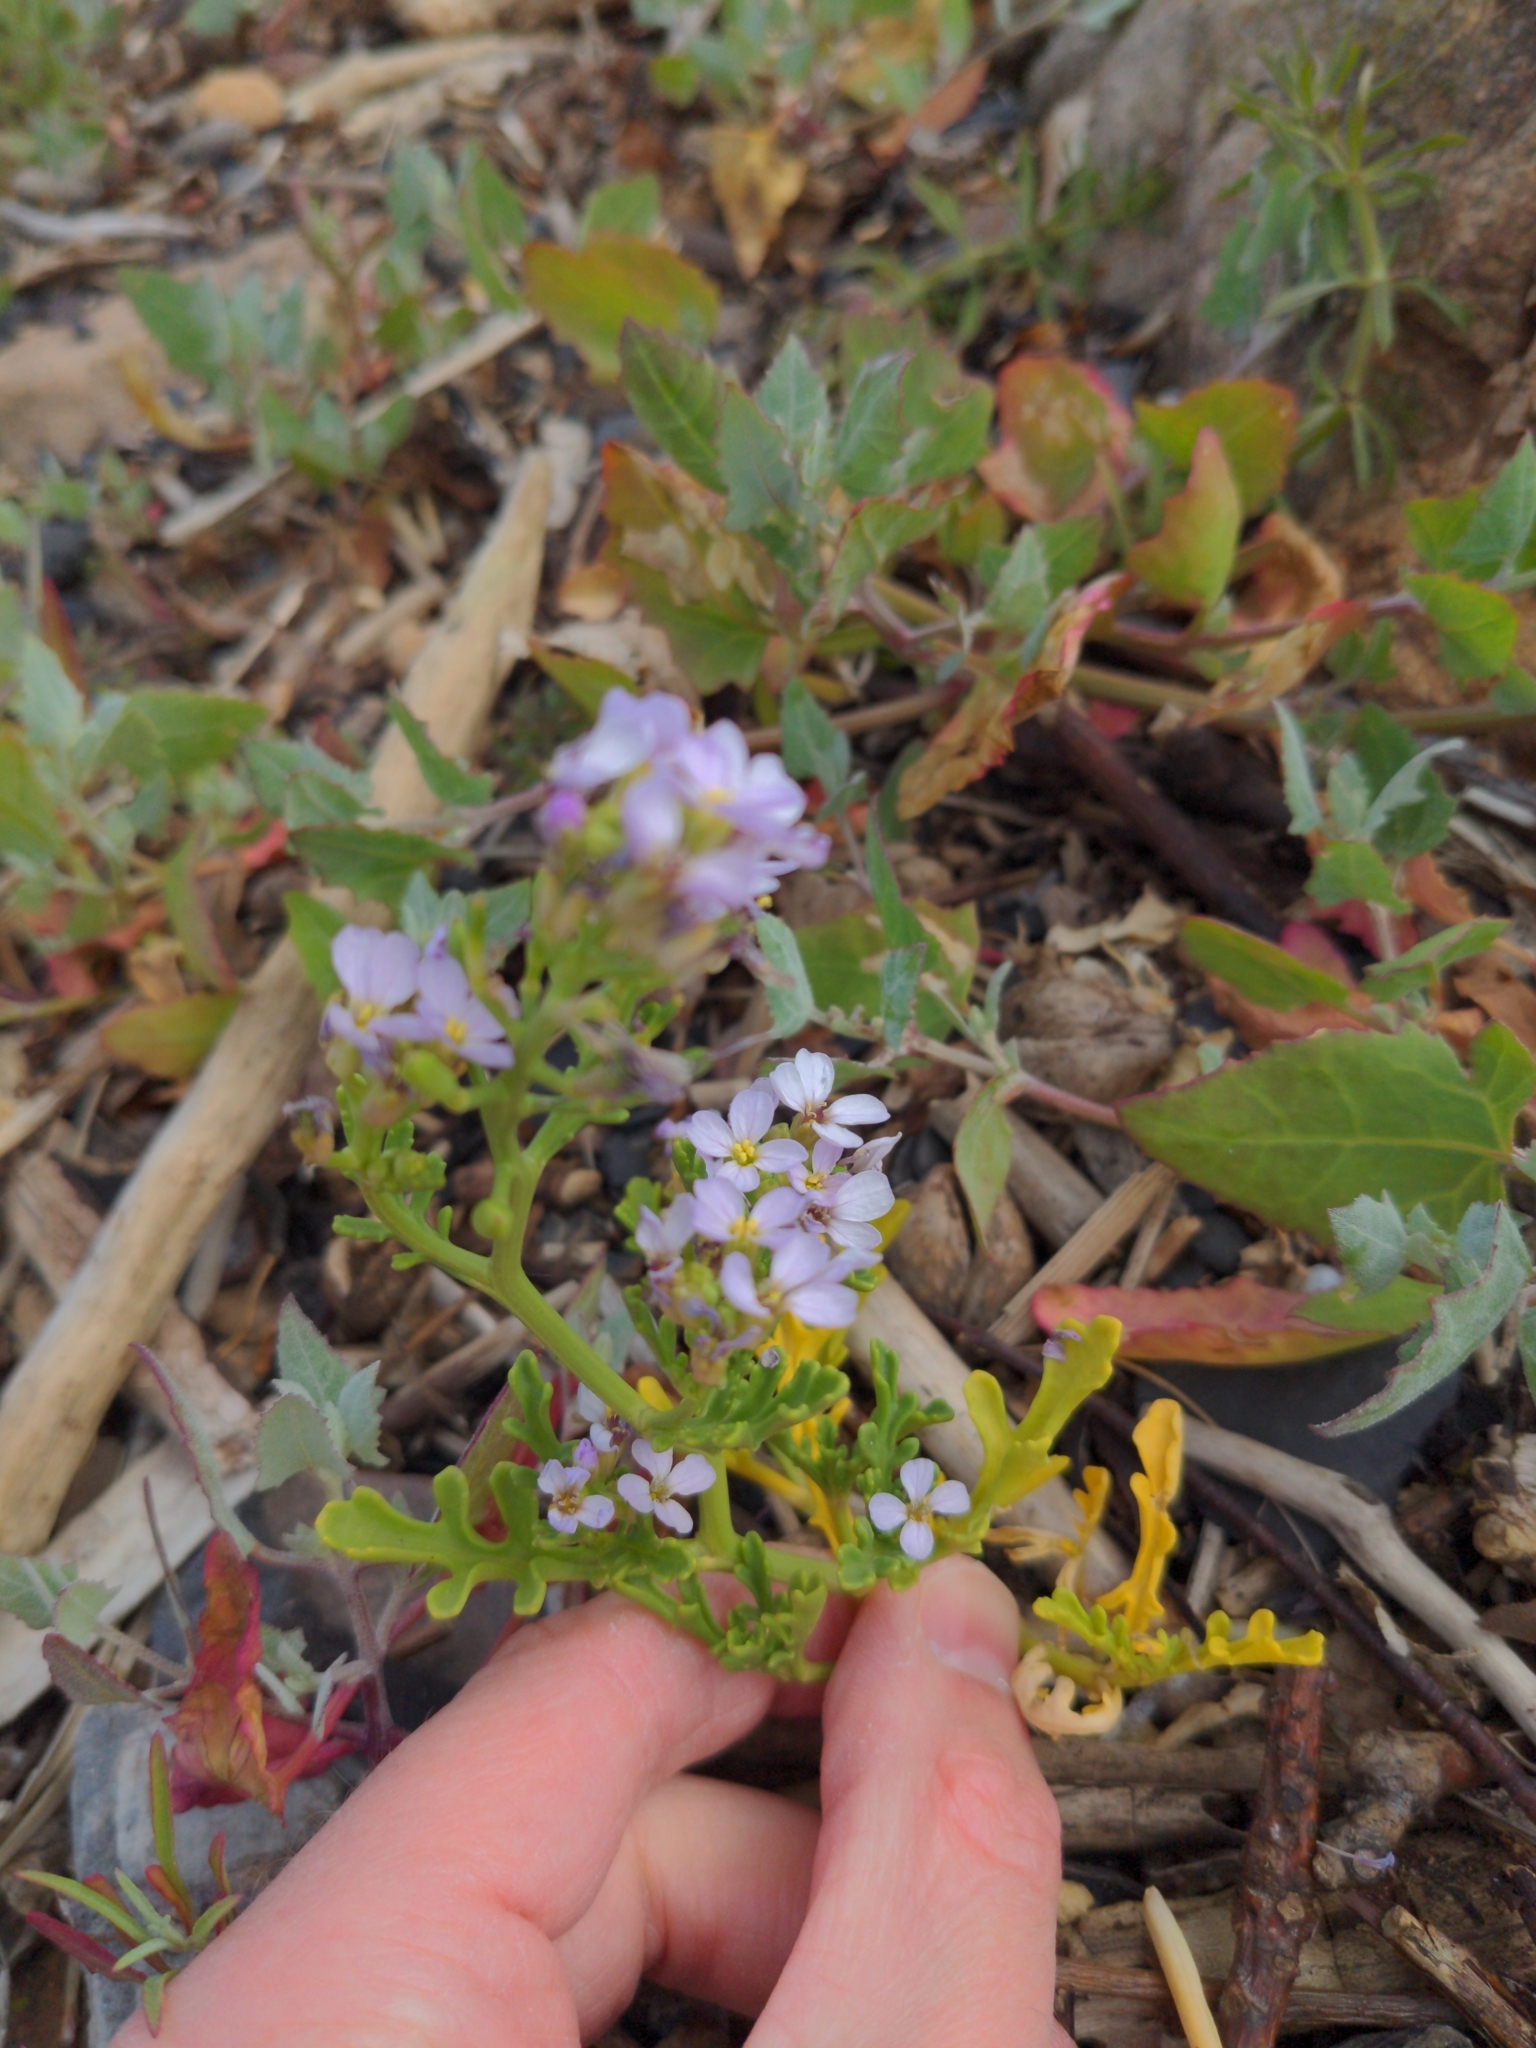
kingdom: Plantae
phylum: Tracheophyta
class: Magnoliopsida
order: Brassicales
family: Brassicaceae
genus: Cakile
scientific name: Cakile maritima
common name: Sea rocket
